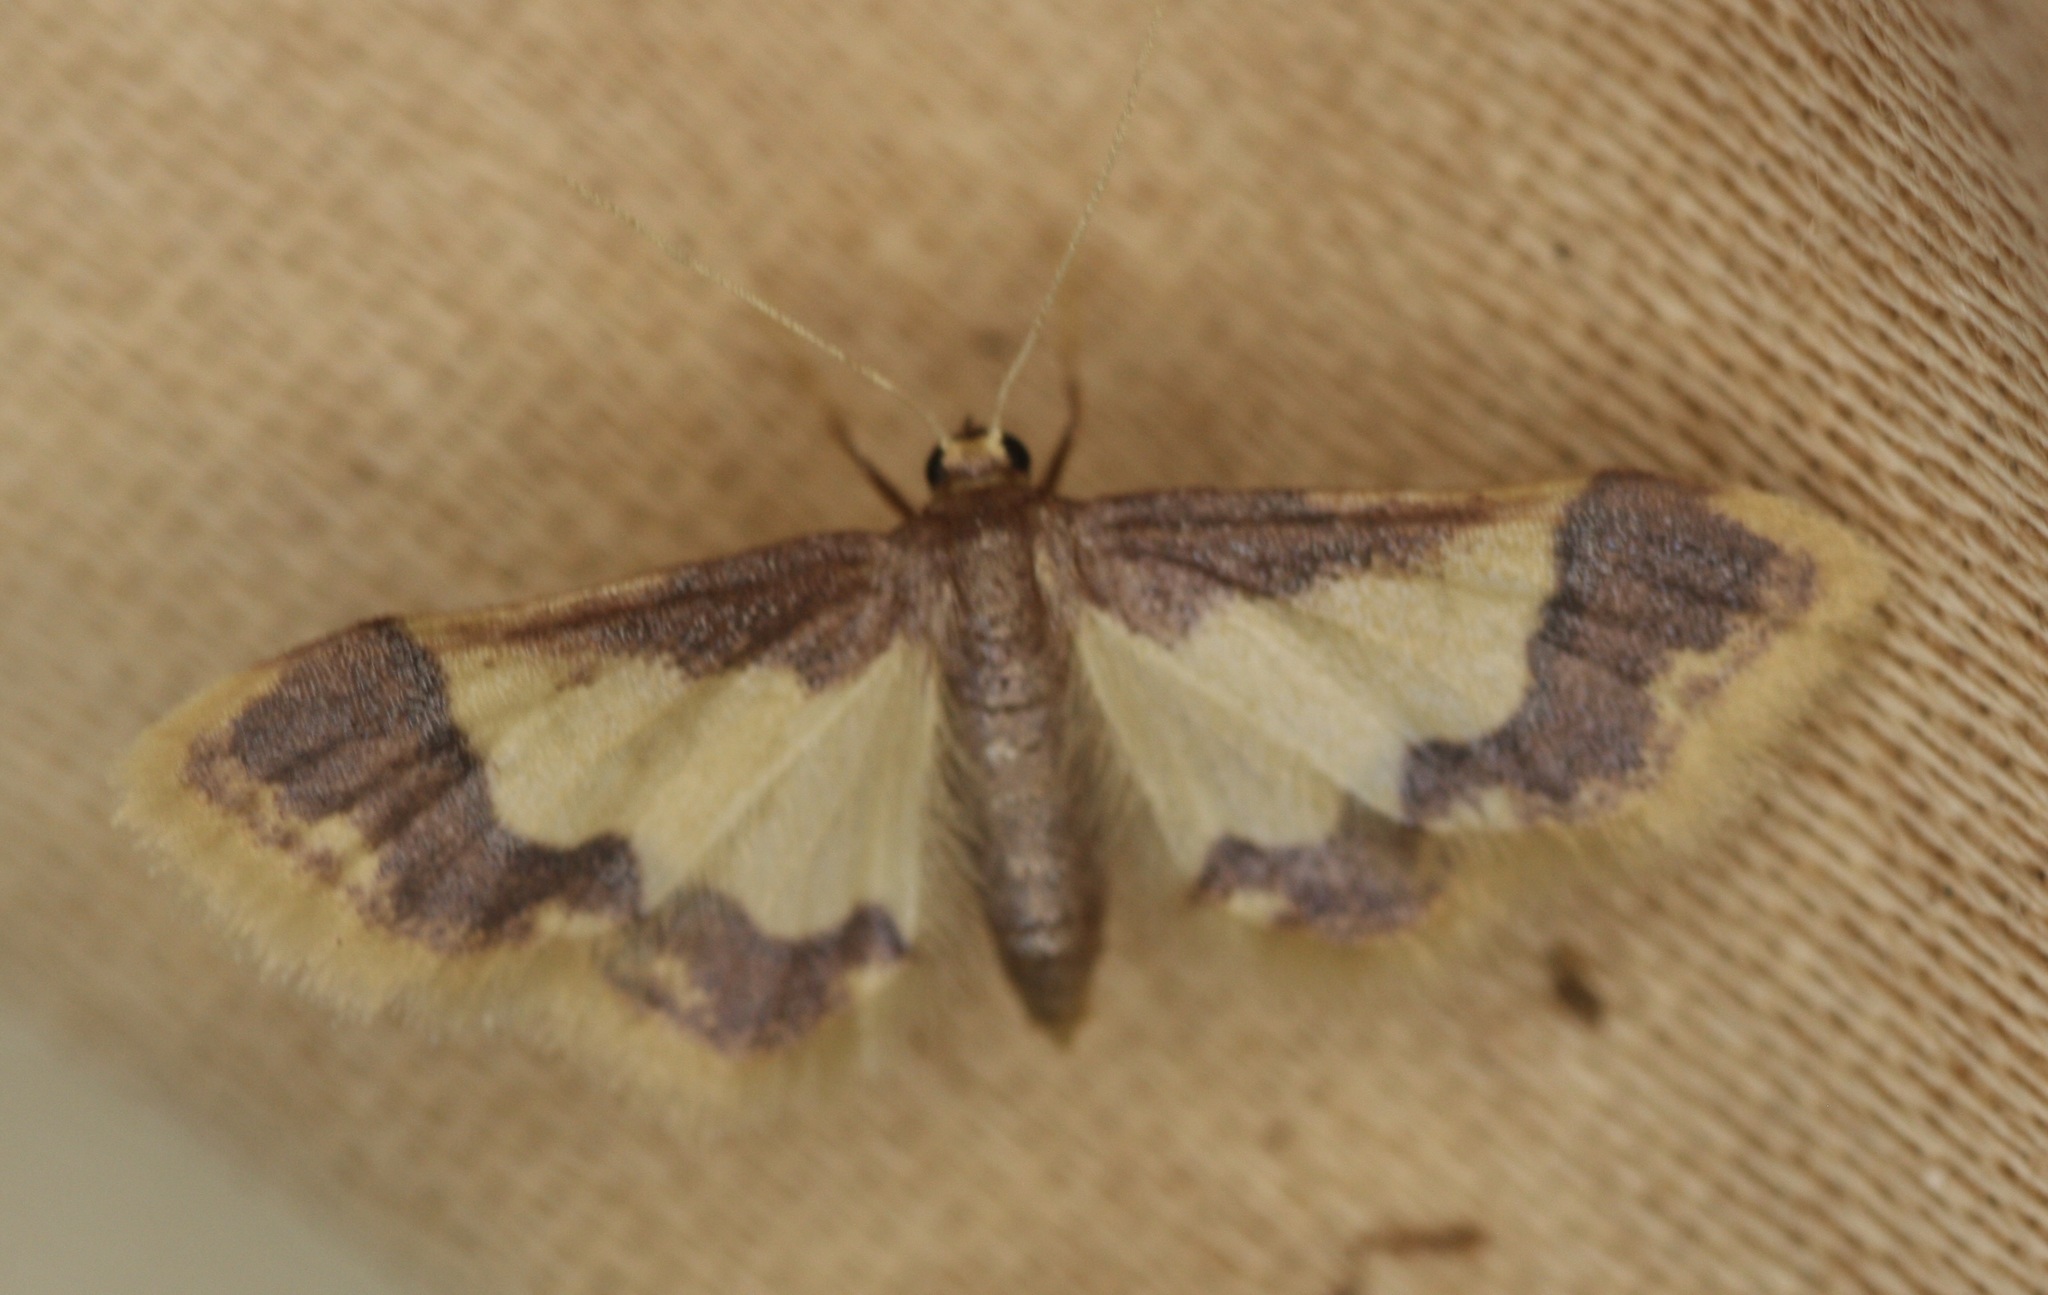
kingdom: Animalia
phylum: Arthropoda
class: Insecta
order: Lepidoptera
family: Geometridae
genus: Idaea
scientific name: Idaea basinta
